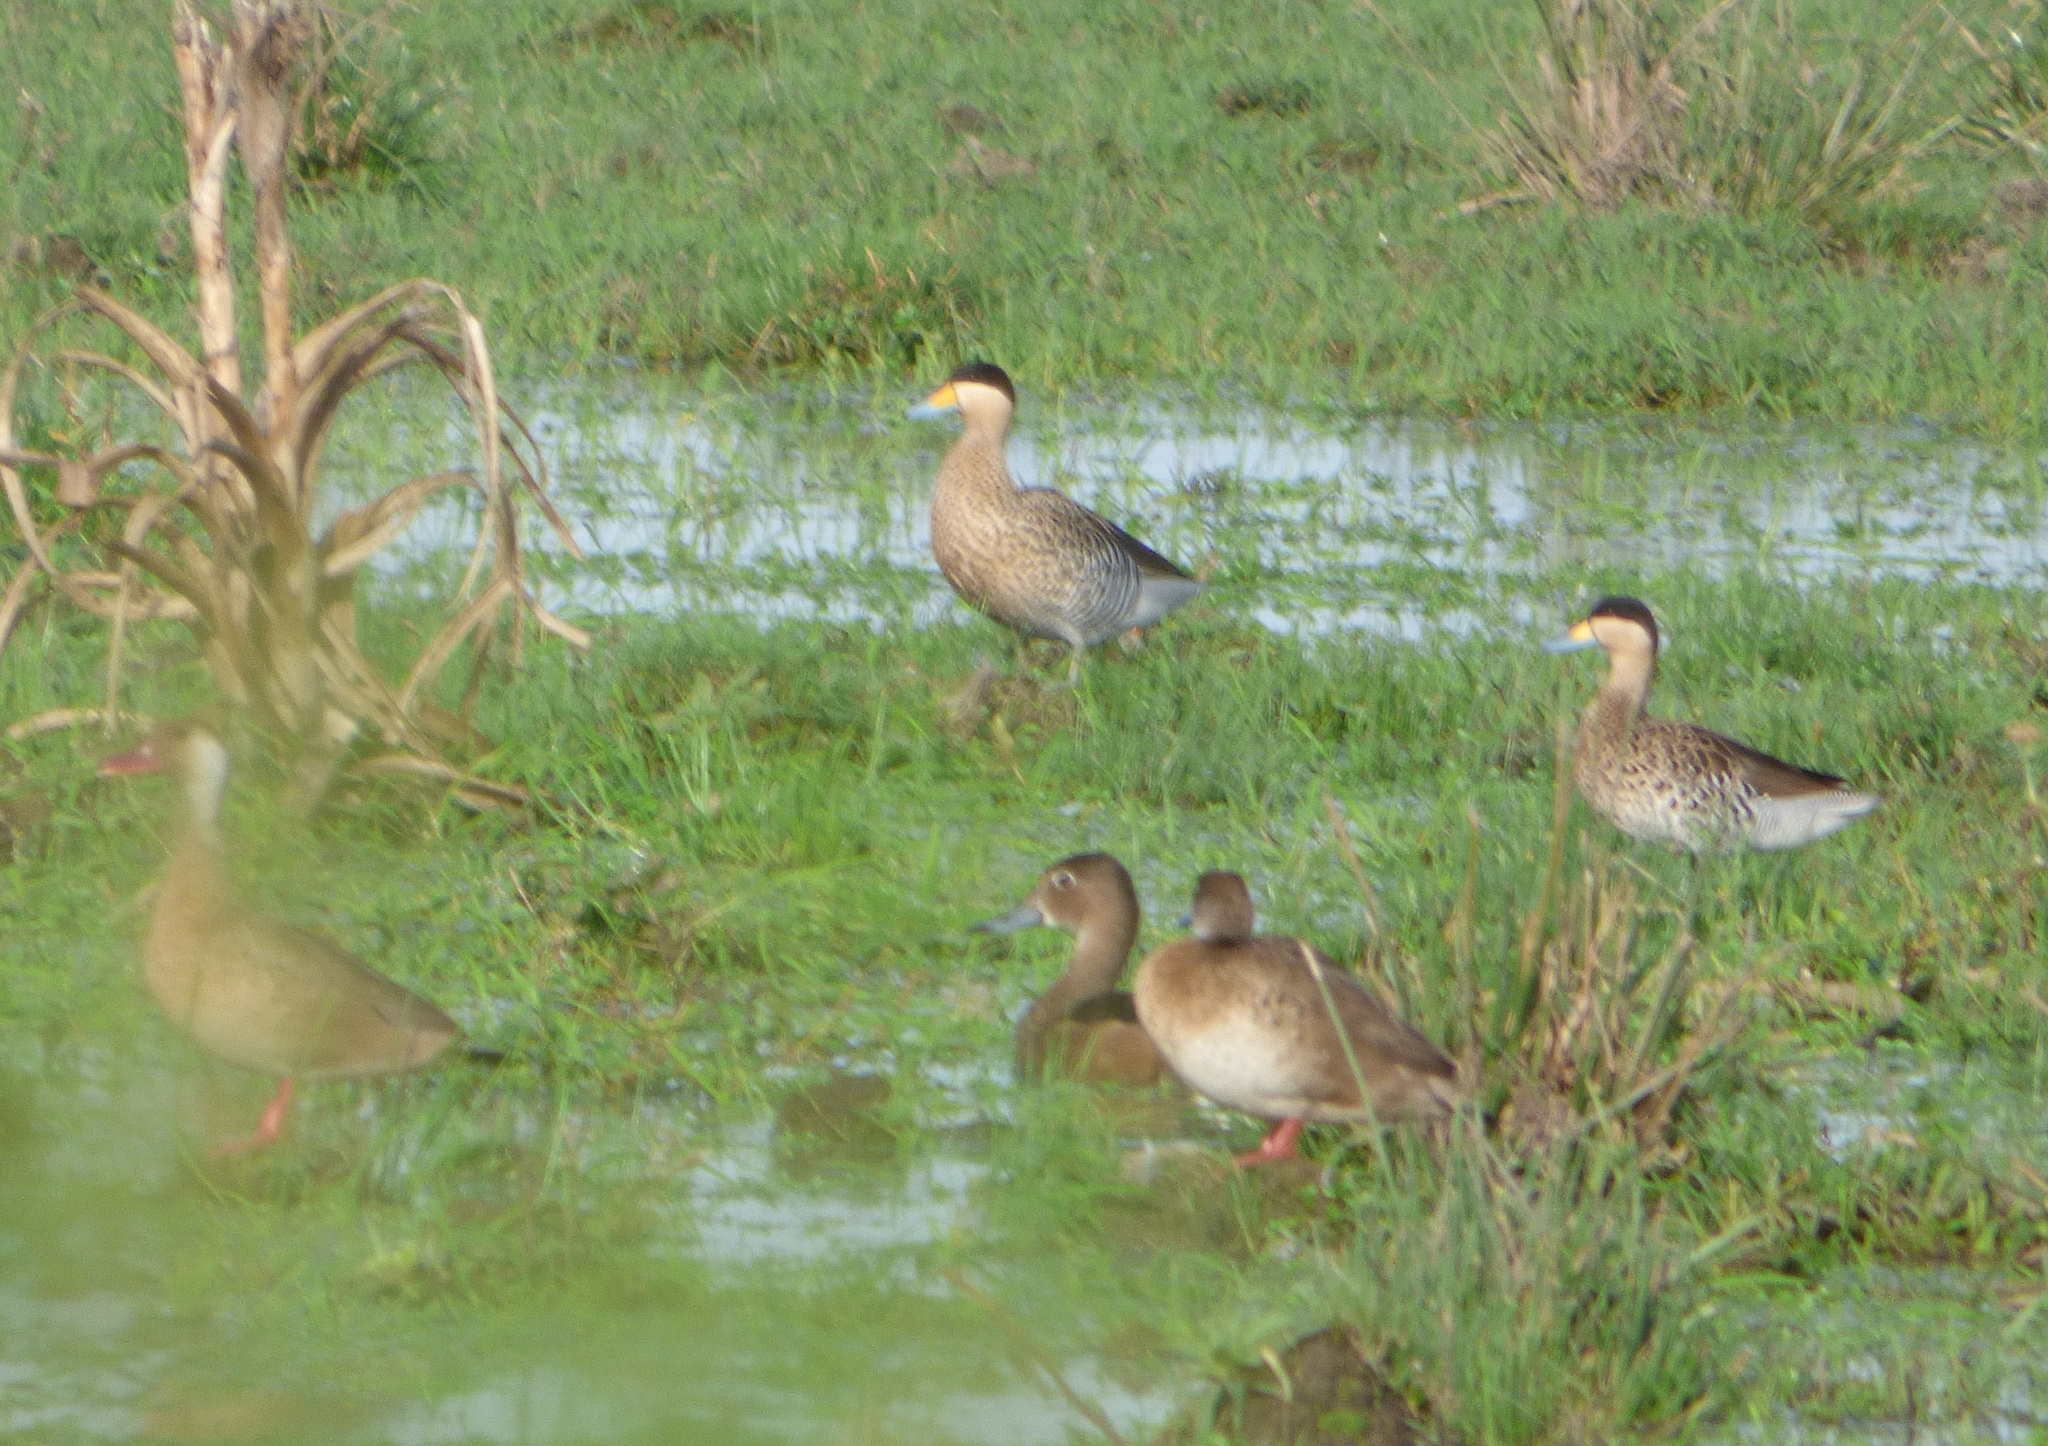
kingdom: Animalia
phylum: Chordata
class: Aves
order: Anseriformes
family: Anatidae
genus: Netta
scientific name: Netta peposaca
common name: Rosy-billed pochard
